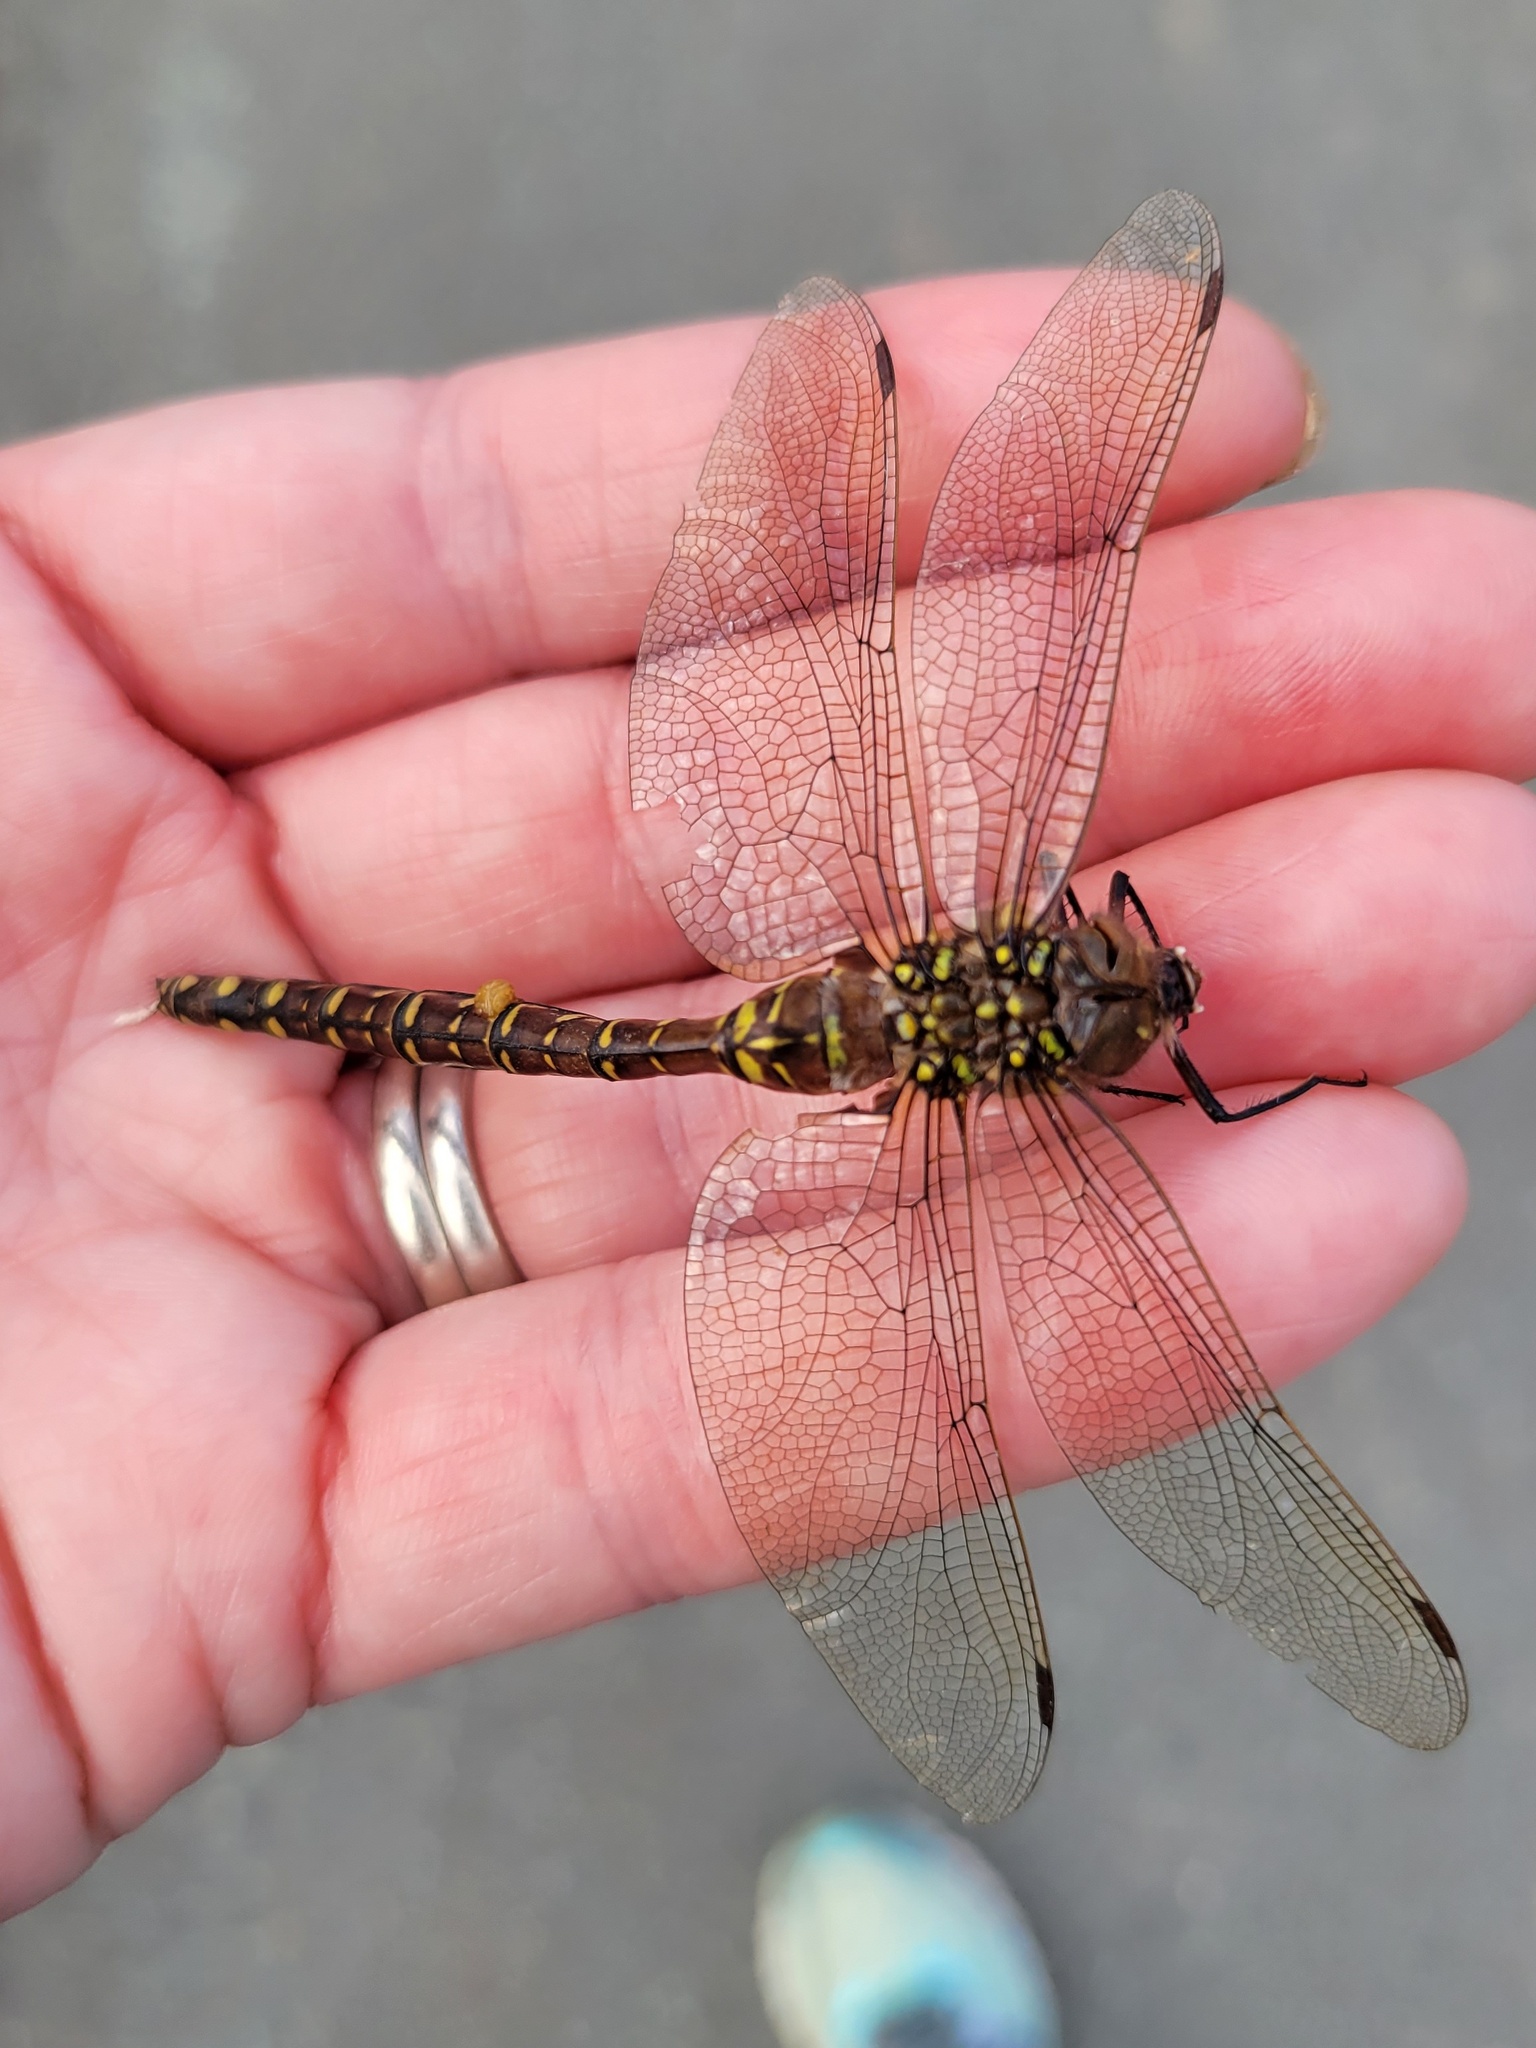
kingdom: Animalia
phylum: Arthropoda
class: Insecta
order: Odonata
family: Aeshnidae
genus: Aeshna
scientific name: Aeshna interrupta
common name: Variable darner
